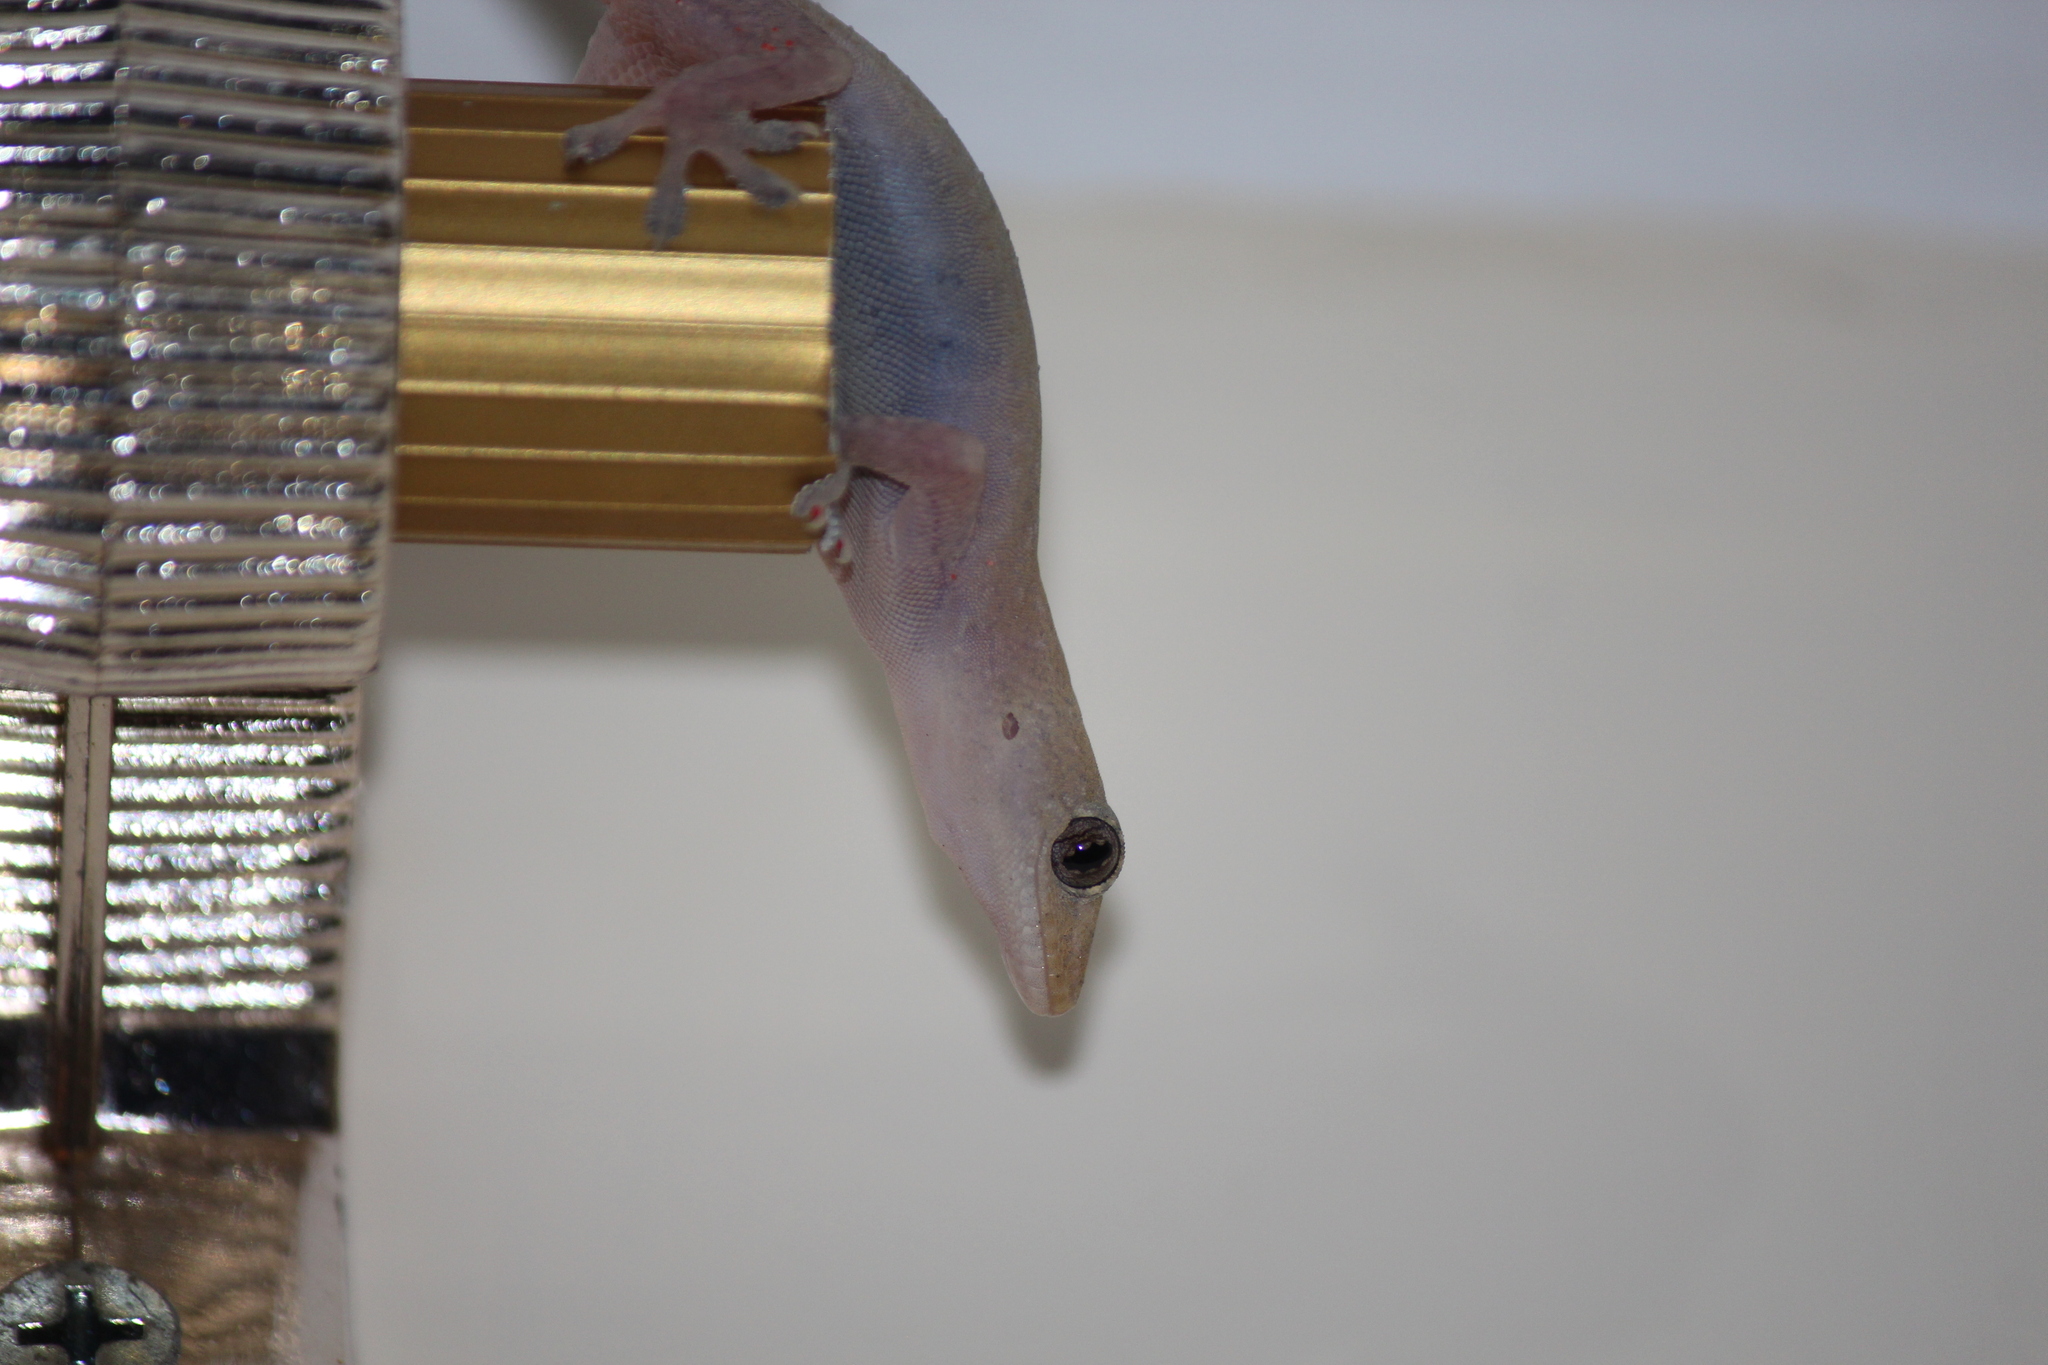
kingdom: Animalia
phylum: Chordata
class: Squamata
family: Gekkonidae
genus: Hemidactylus
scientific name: Hemidactylus frenatus
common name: Common house gecko
